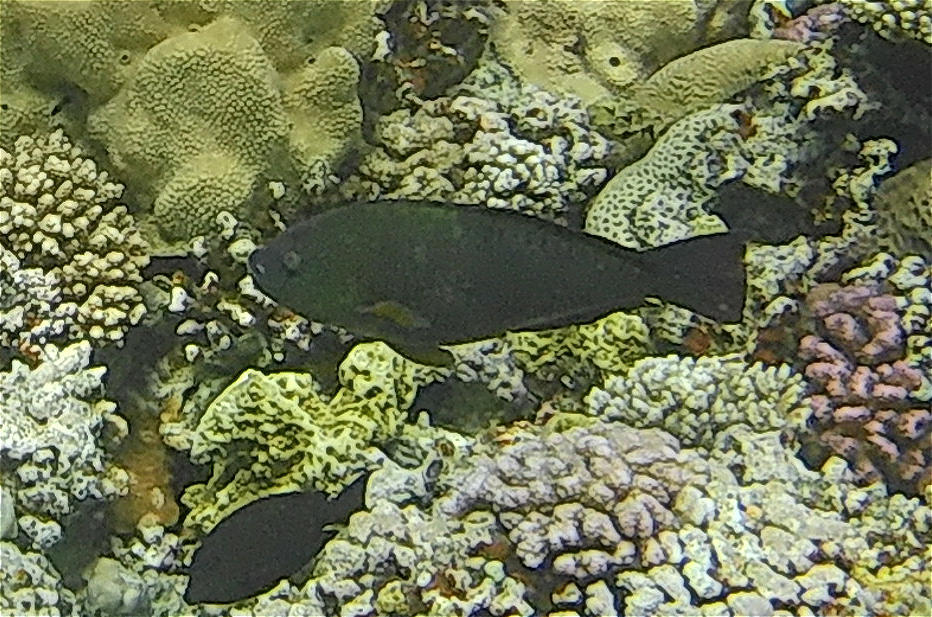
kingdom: Animalia
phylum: Chordata
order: Perciformes
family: Scaridae
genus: Calotomus
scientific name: Calotomus viridescens
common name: Dotted parrotfish
